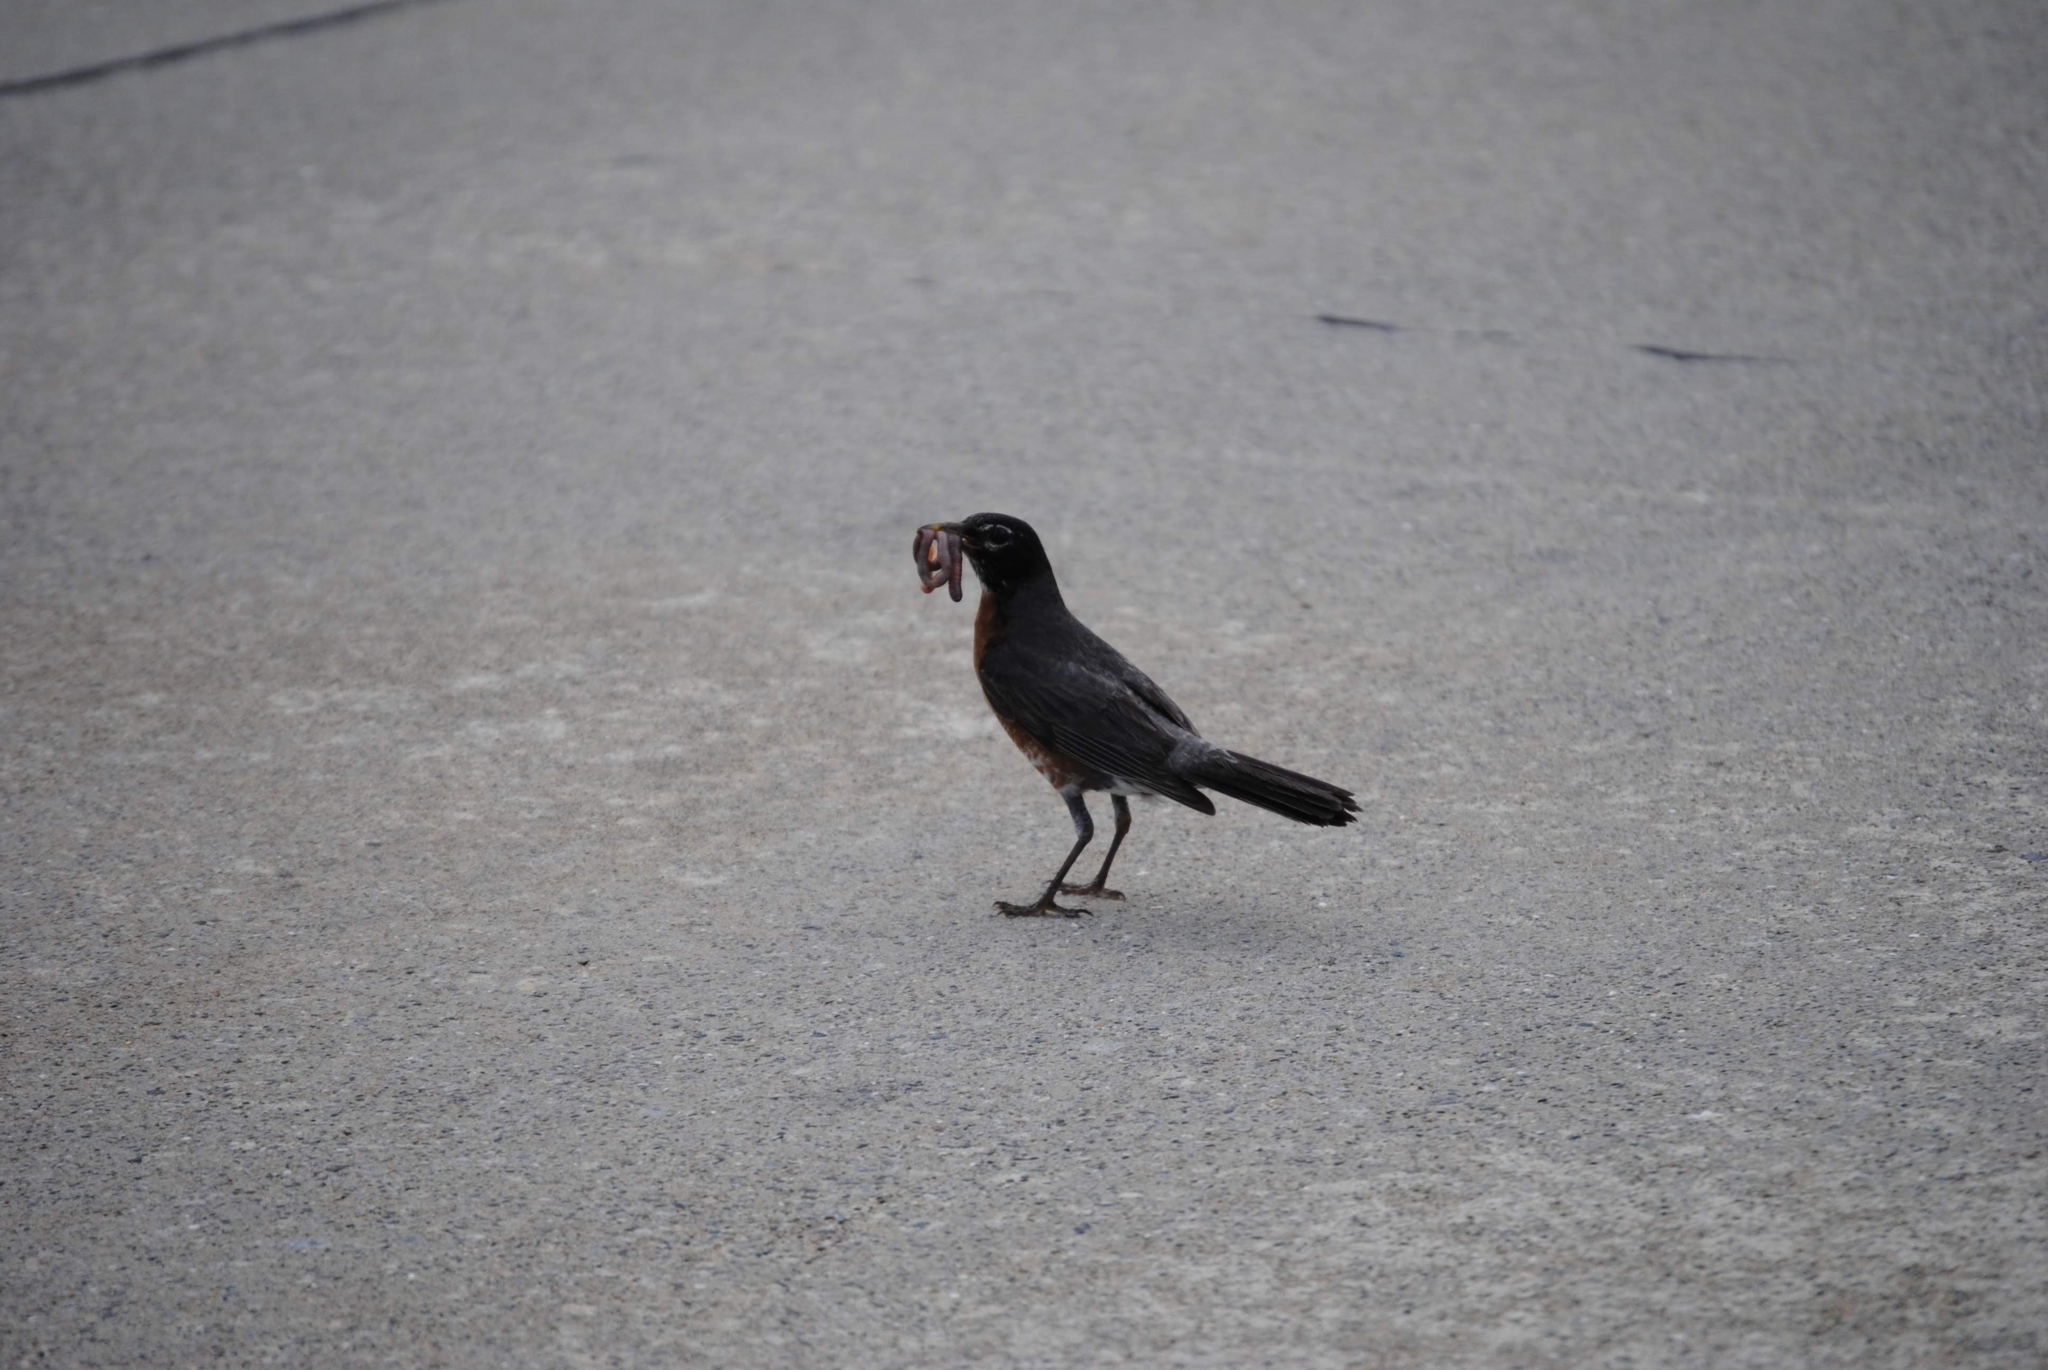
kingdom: Animalia
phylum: Chordata
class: Aves
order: Passeriformes
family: Turdidae
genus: Turdus
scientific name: Turdus migratorius
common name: American robin
